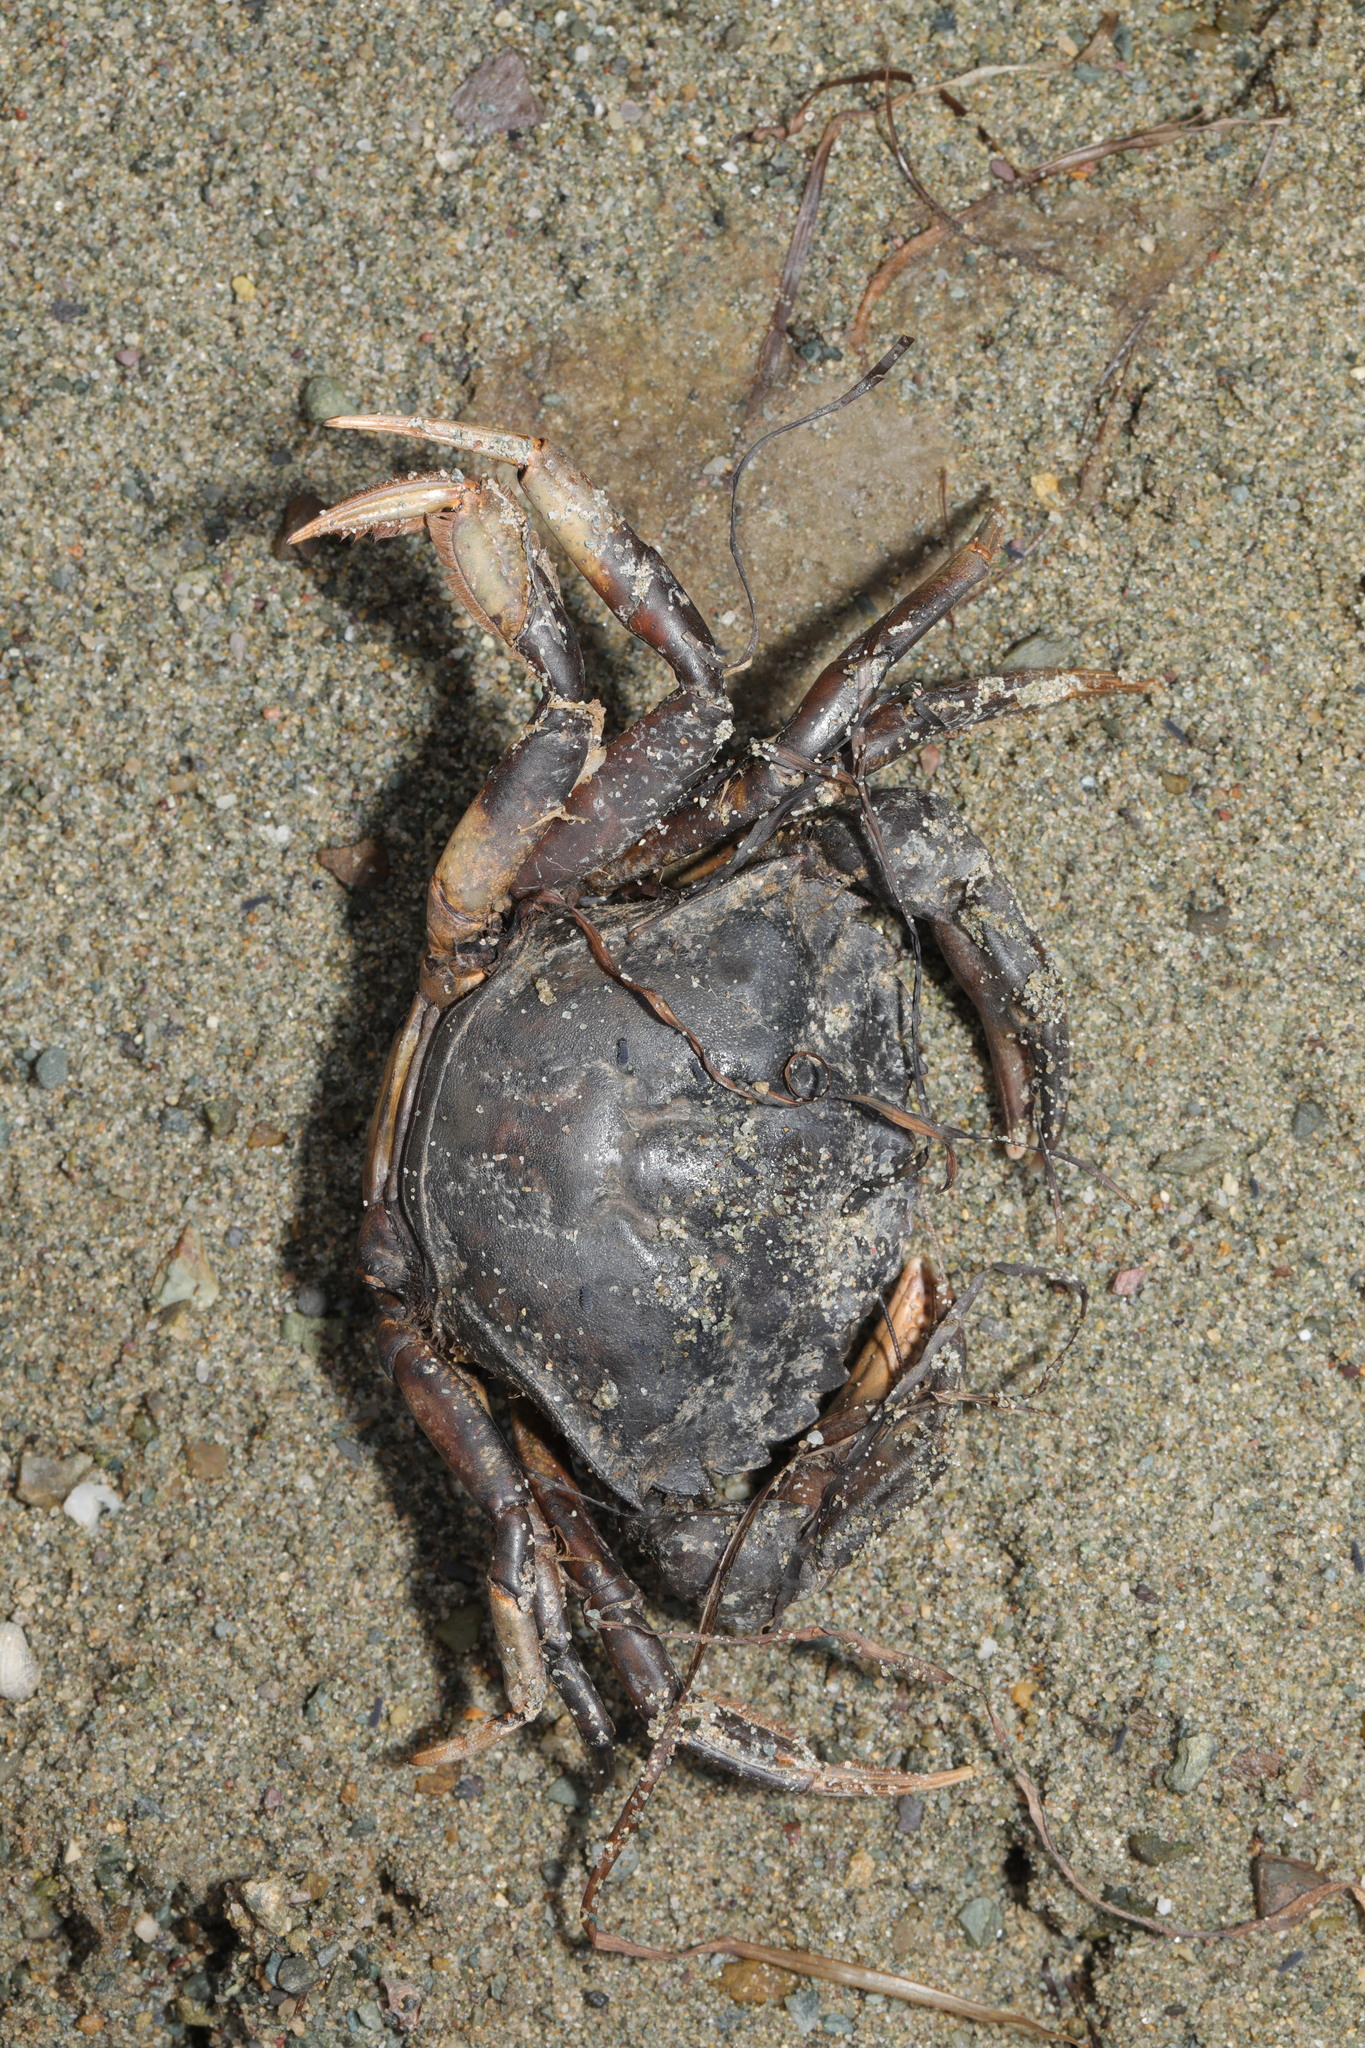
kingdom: Animalia
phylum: Arthropoda
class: Malacostraca
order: Decapoda
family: Carcinidae
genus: Carcinus
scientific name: Carcinus maenas
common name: European green crab
